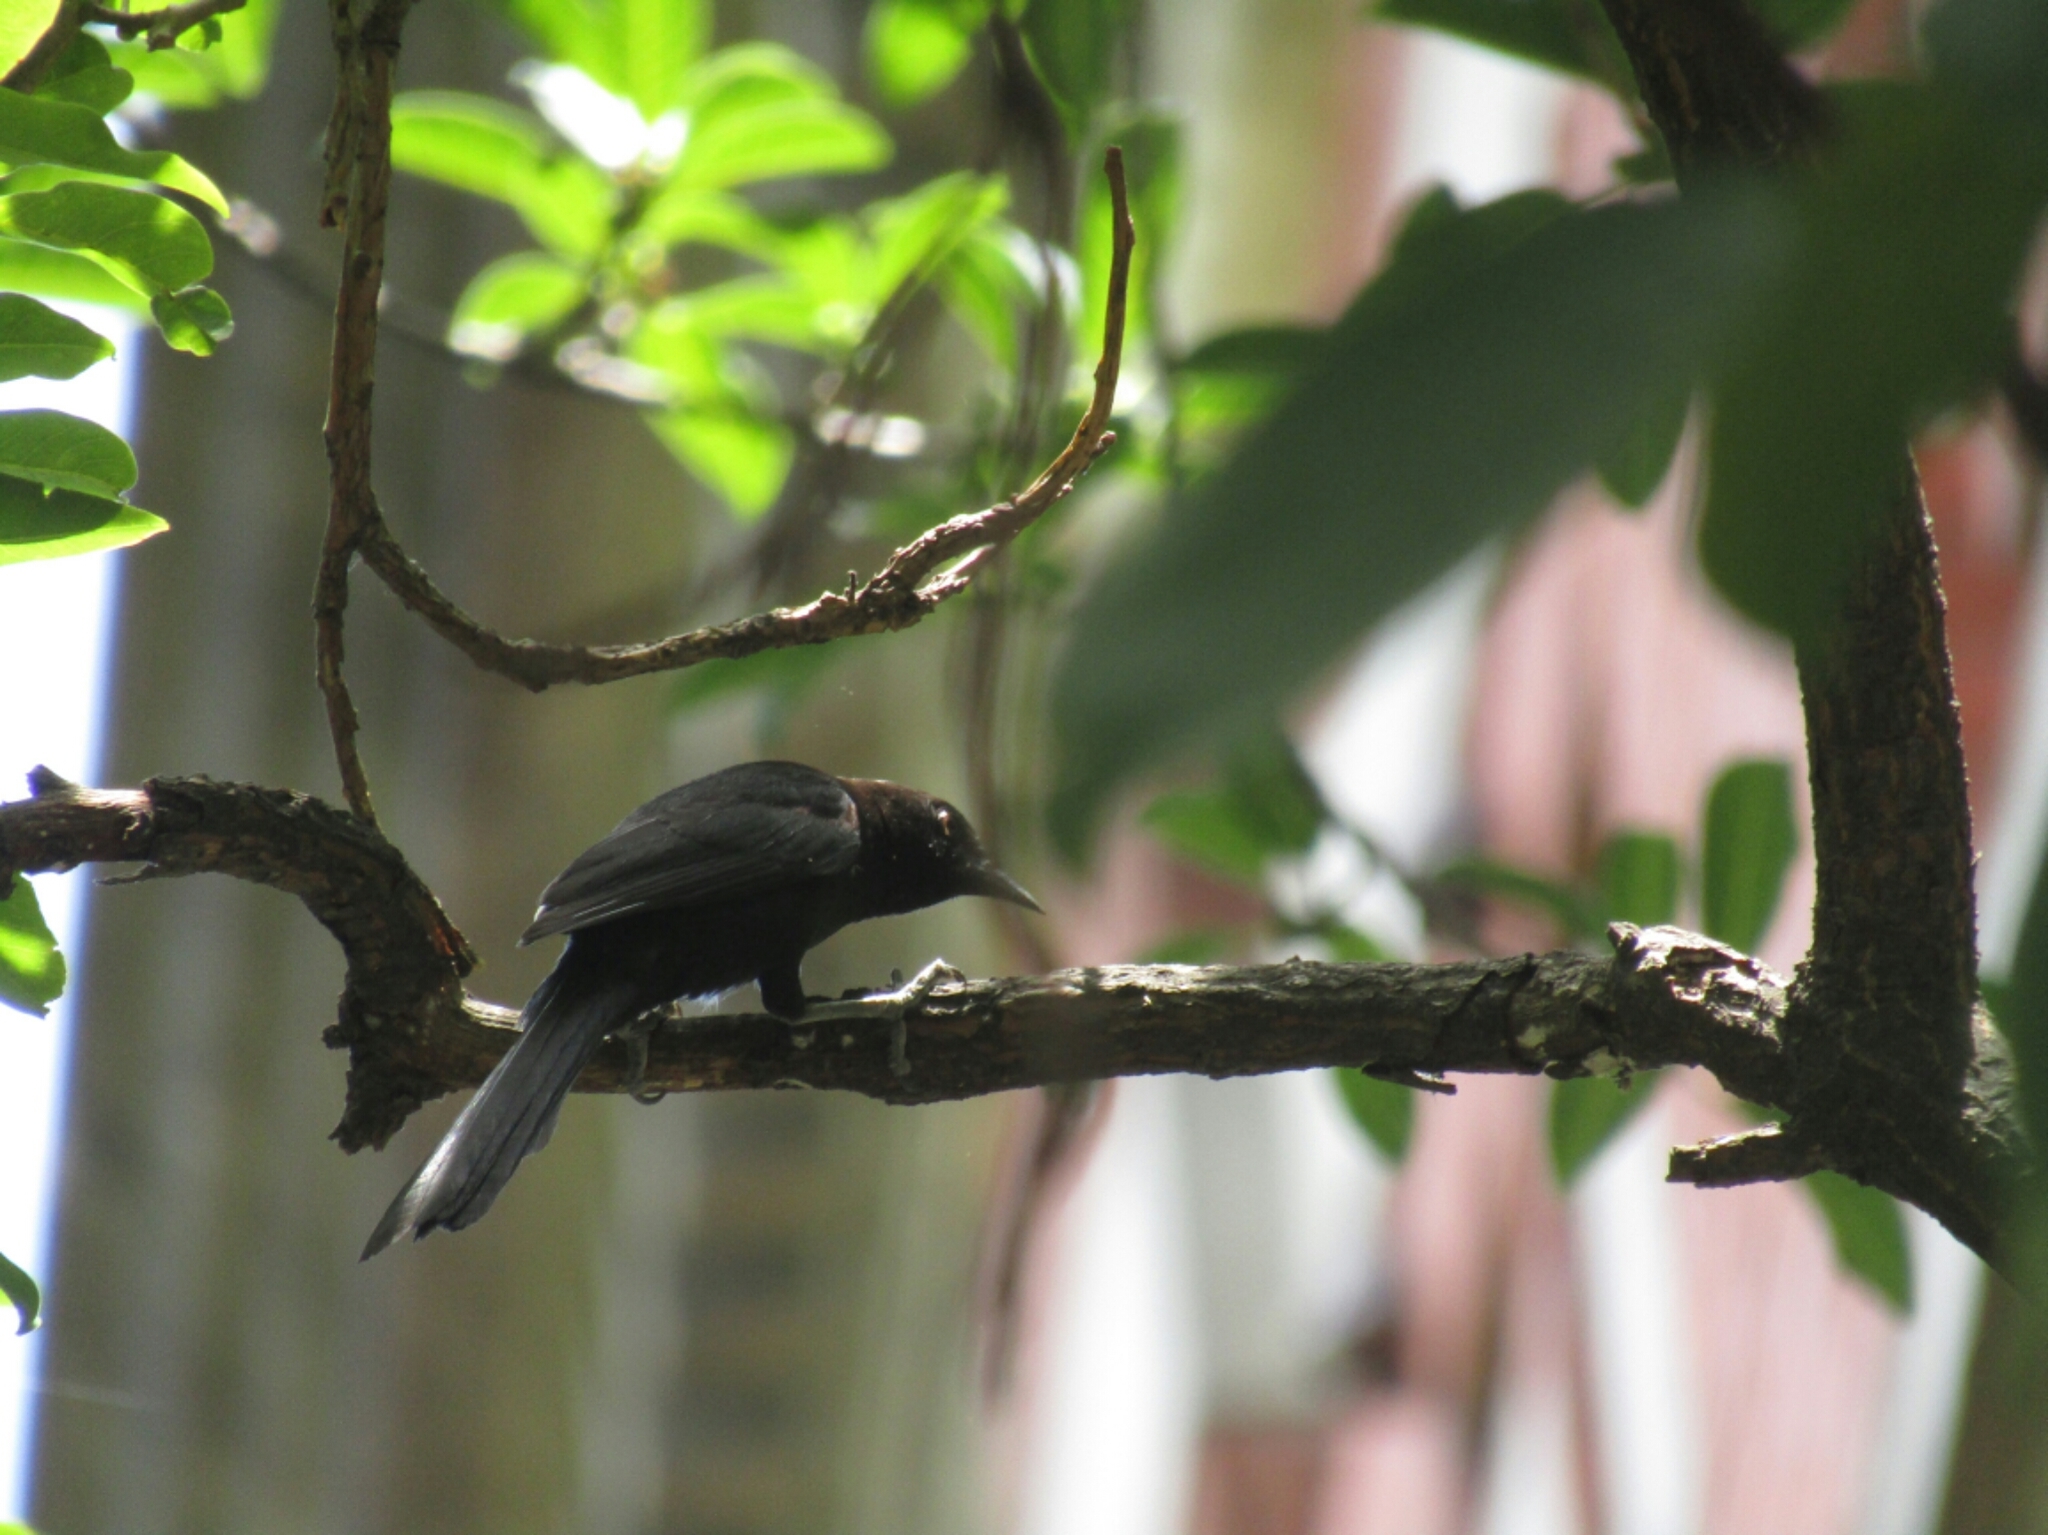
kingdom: Animalia
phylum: Chordata
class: Aves
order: Passeriformes
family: Icteridae
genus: Icterus
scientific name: Icterus cayanensis
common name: Epaulet oriole
